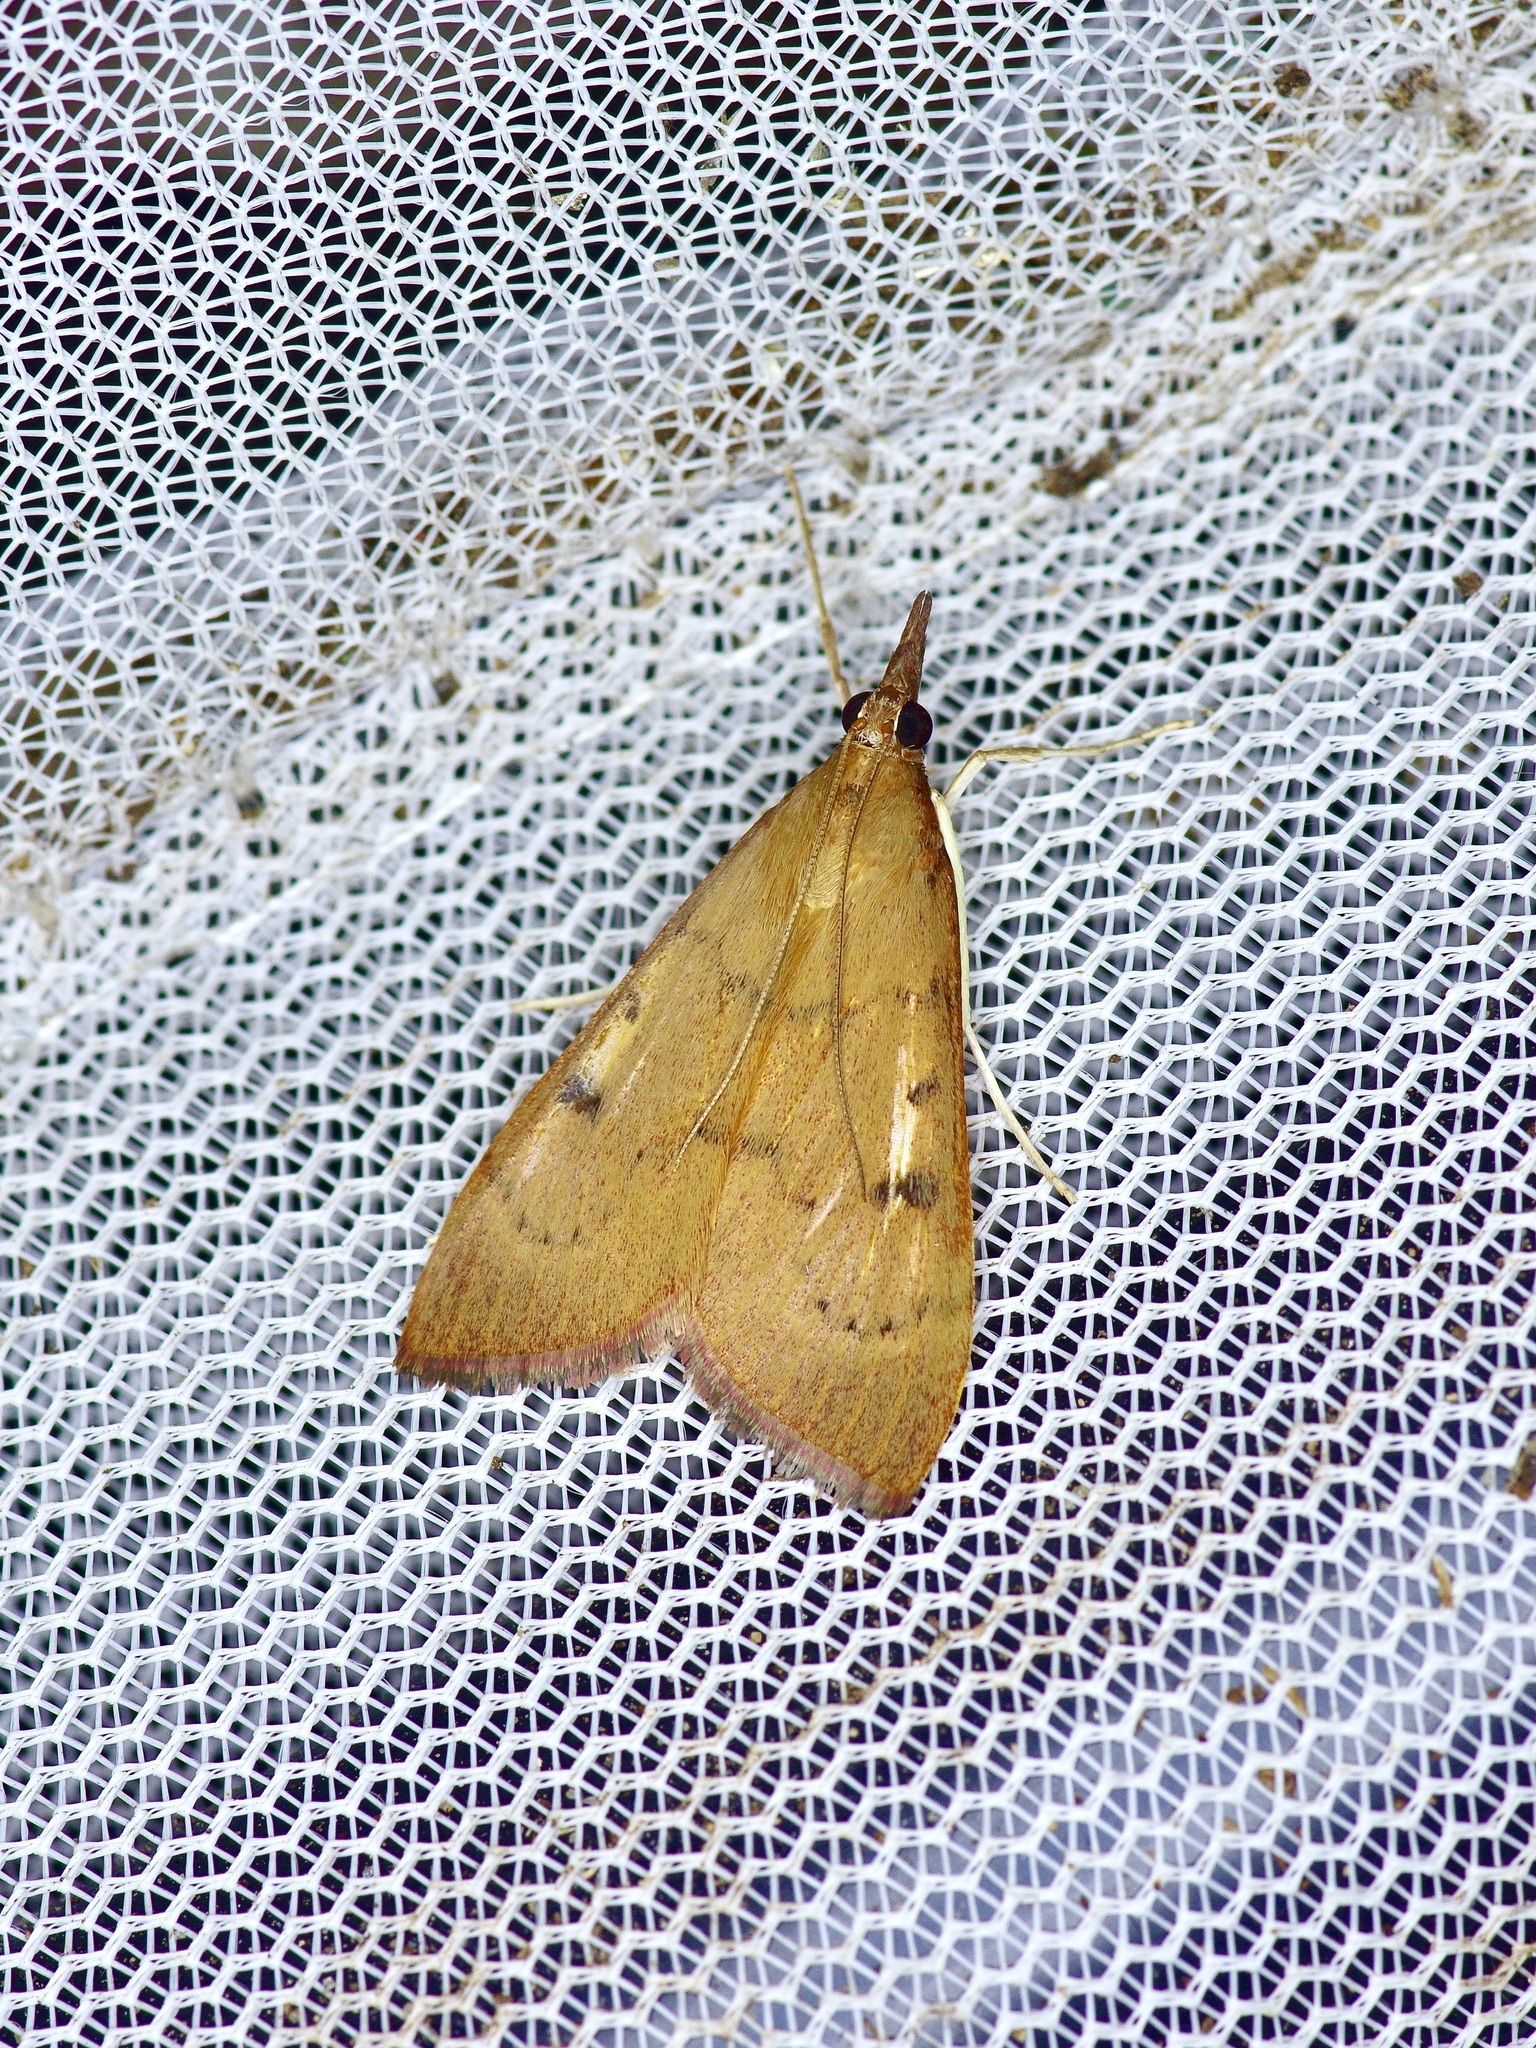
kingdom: Animalia
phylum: Arthropoda
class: Insecta
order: Lepidoptera
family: Crambidae
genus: Uresiphita
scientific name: Uresiphita reversalis
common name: Genista broom moth
